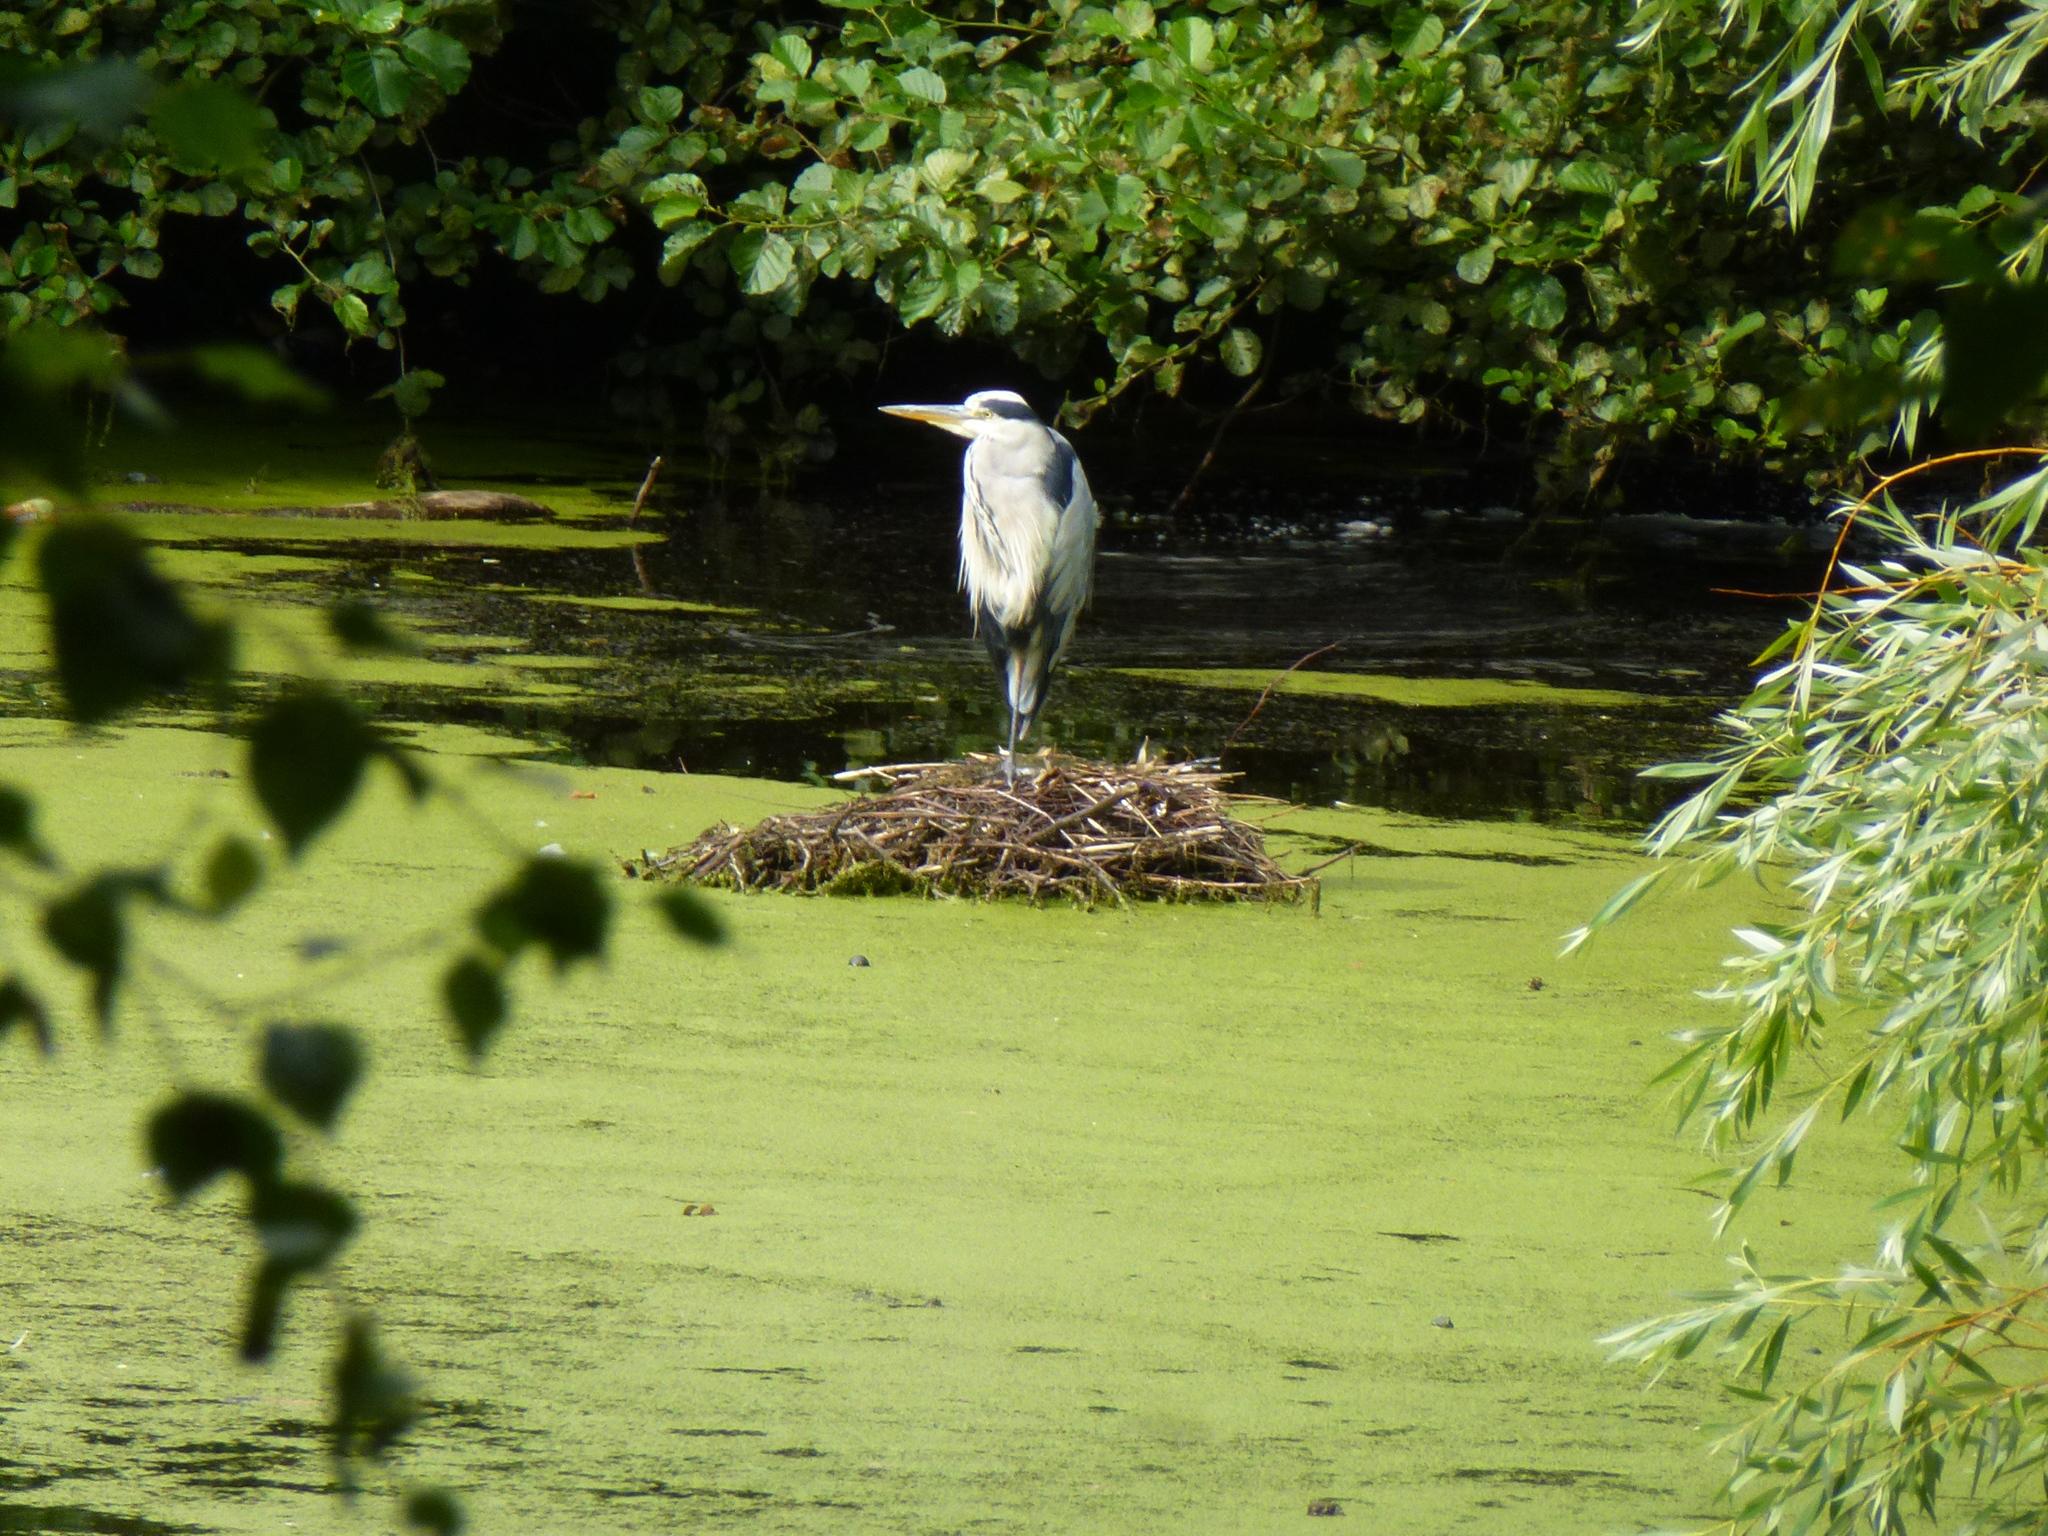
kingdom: Animalia
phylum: Chordata
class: Aves
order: Pelecaniformes
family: Ardeidae
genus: Ardea
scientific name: Ardea cinerea
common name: Grey heron
